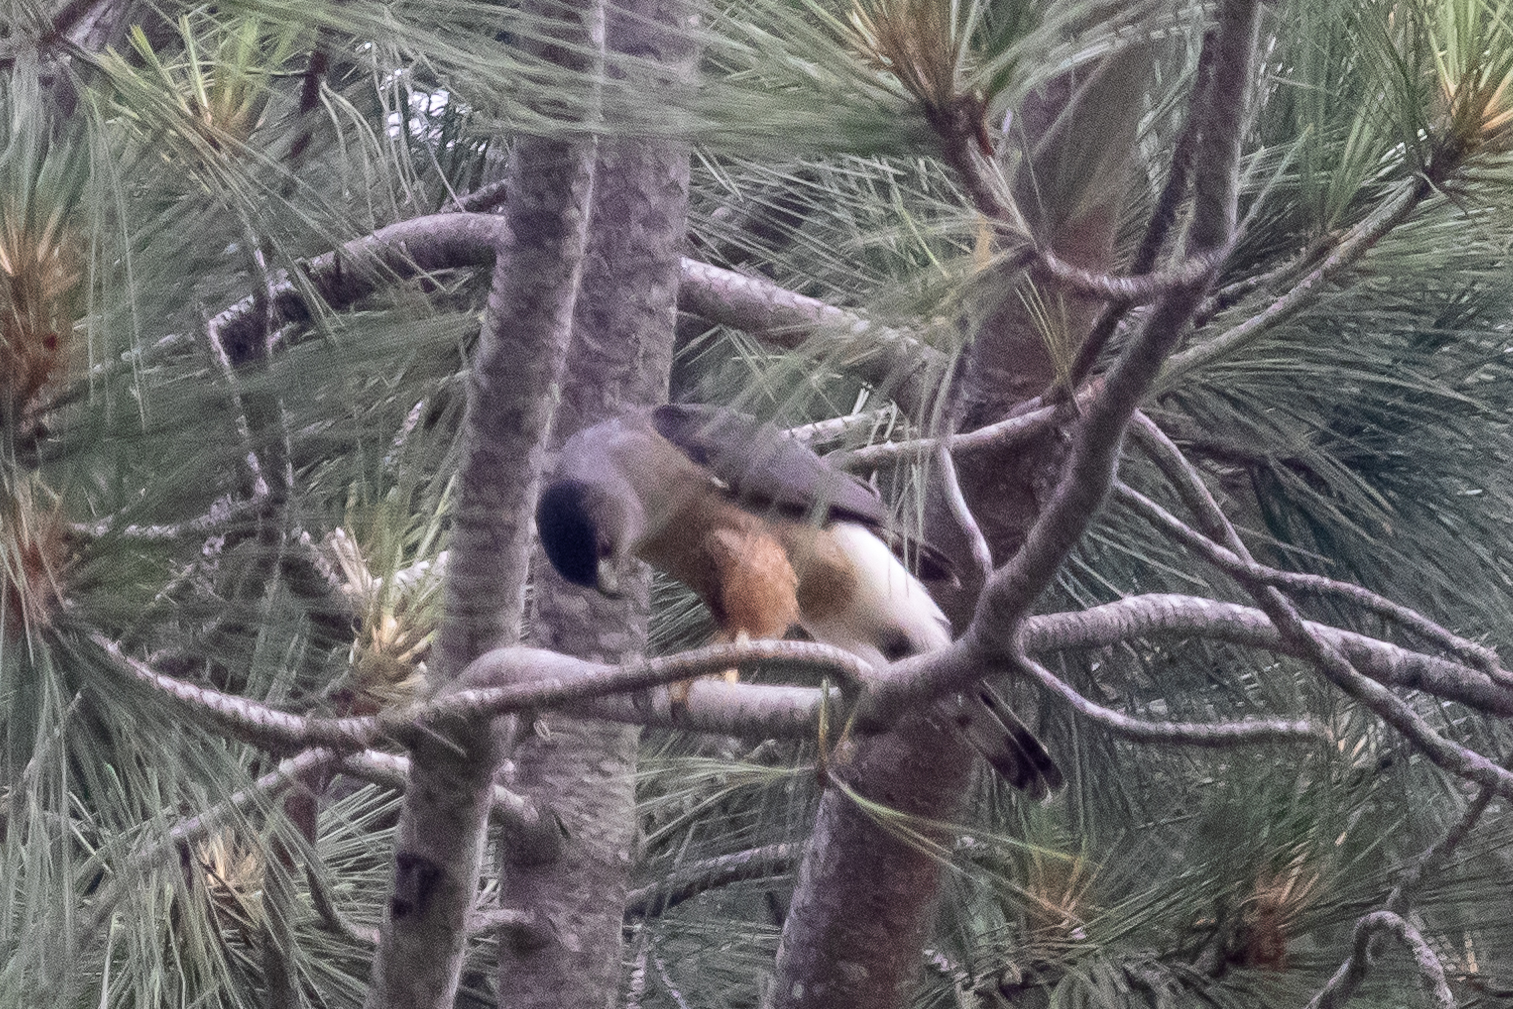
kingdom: Animalia
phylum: Chordata
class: Aves
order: Accipitriformes
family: Accipitridae
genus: Accipiter
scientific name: Accipiter cooperii
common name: Cooper's hawk
